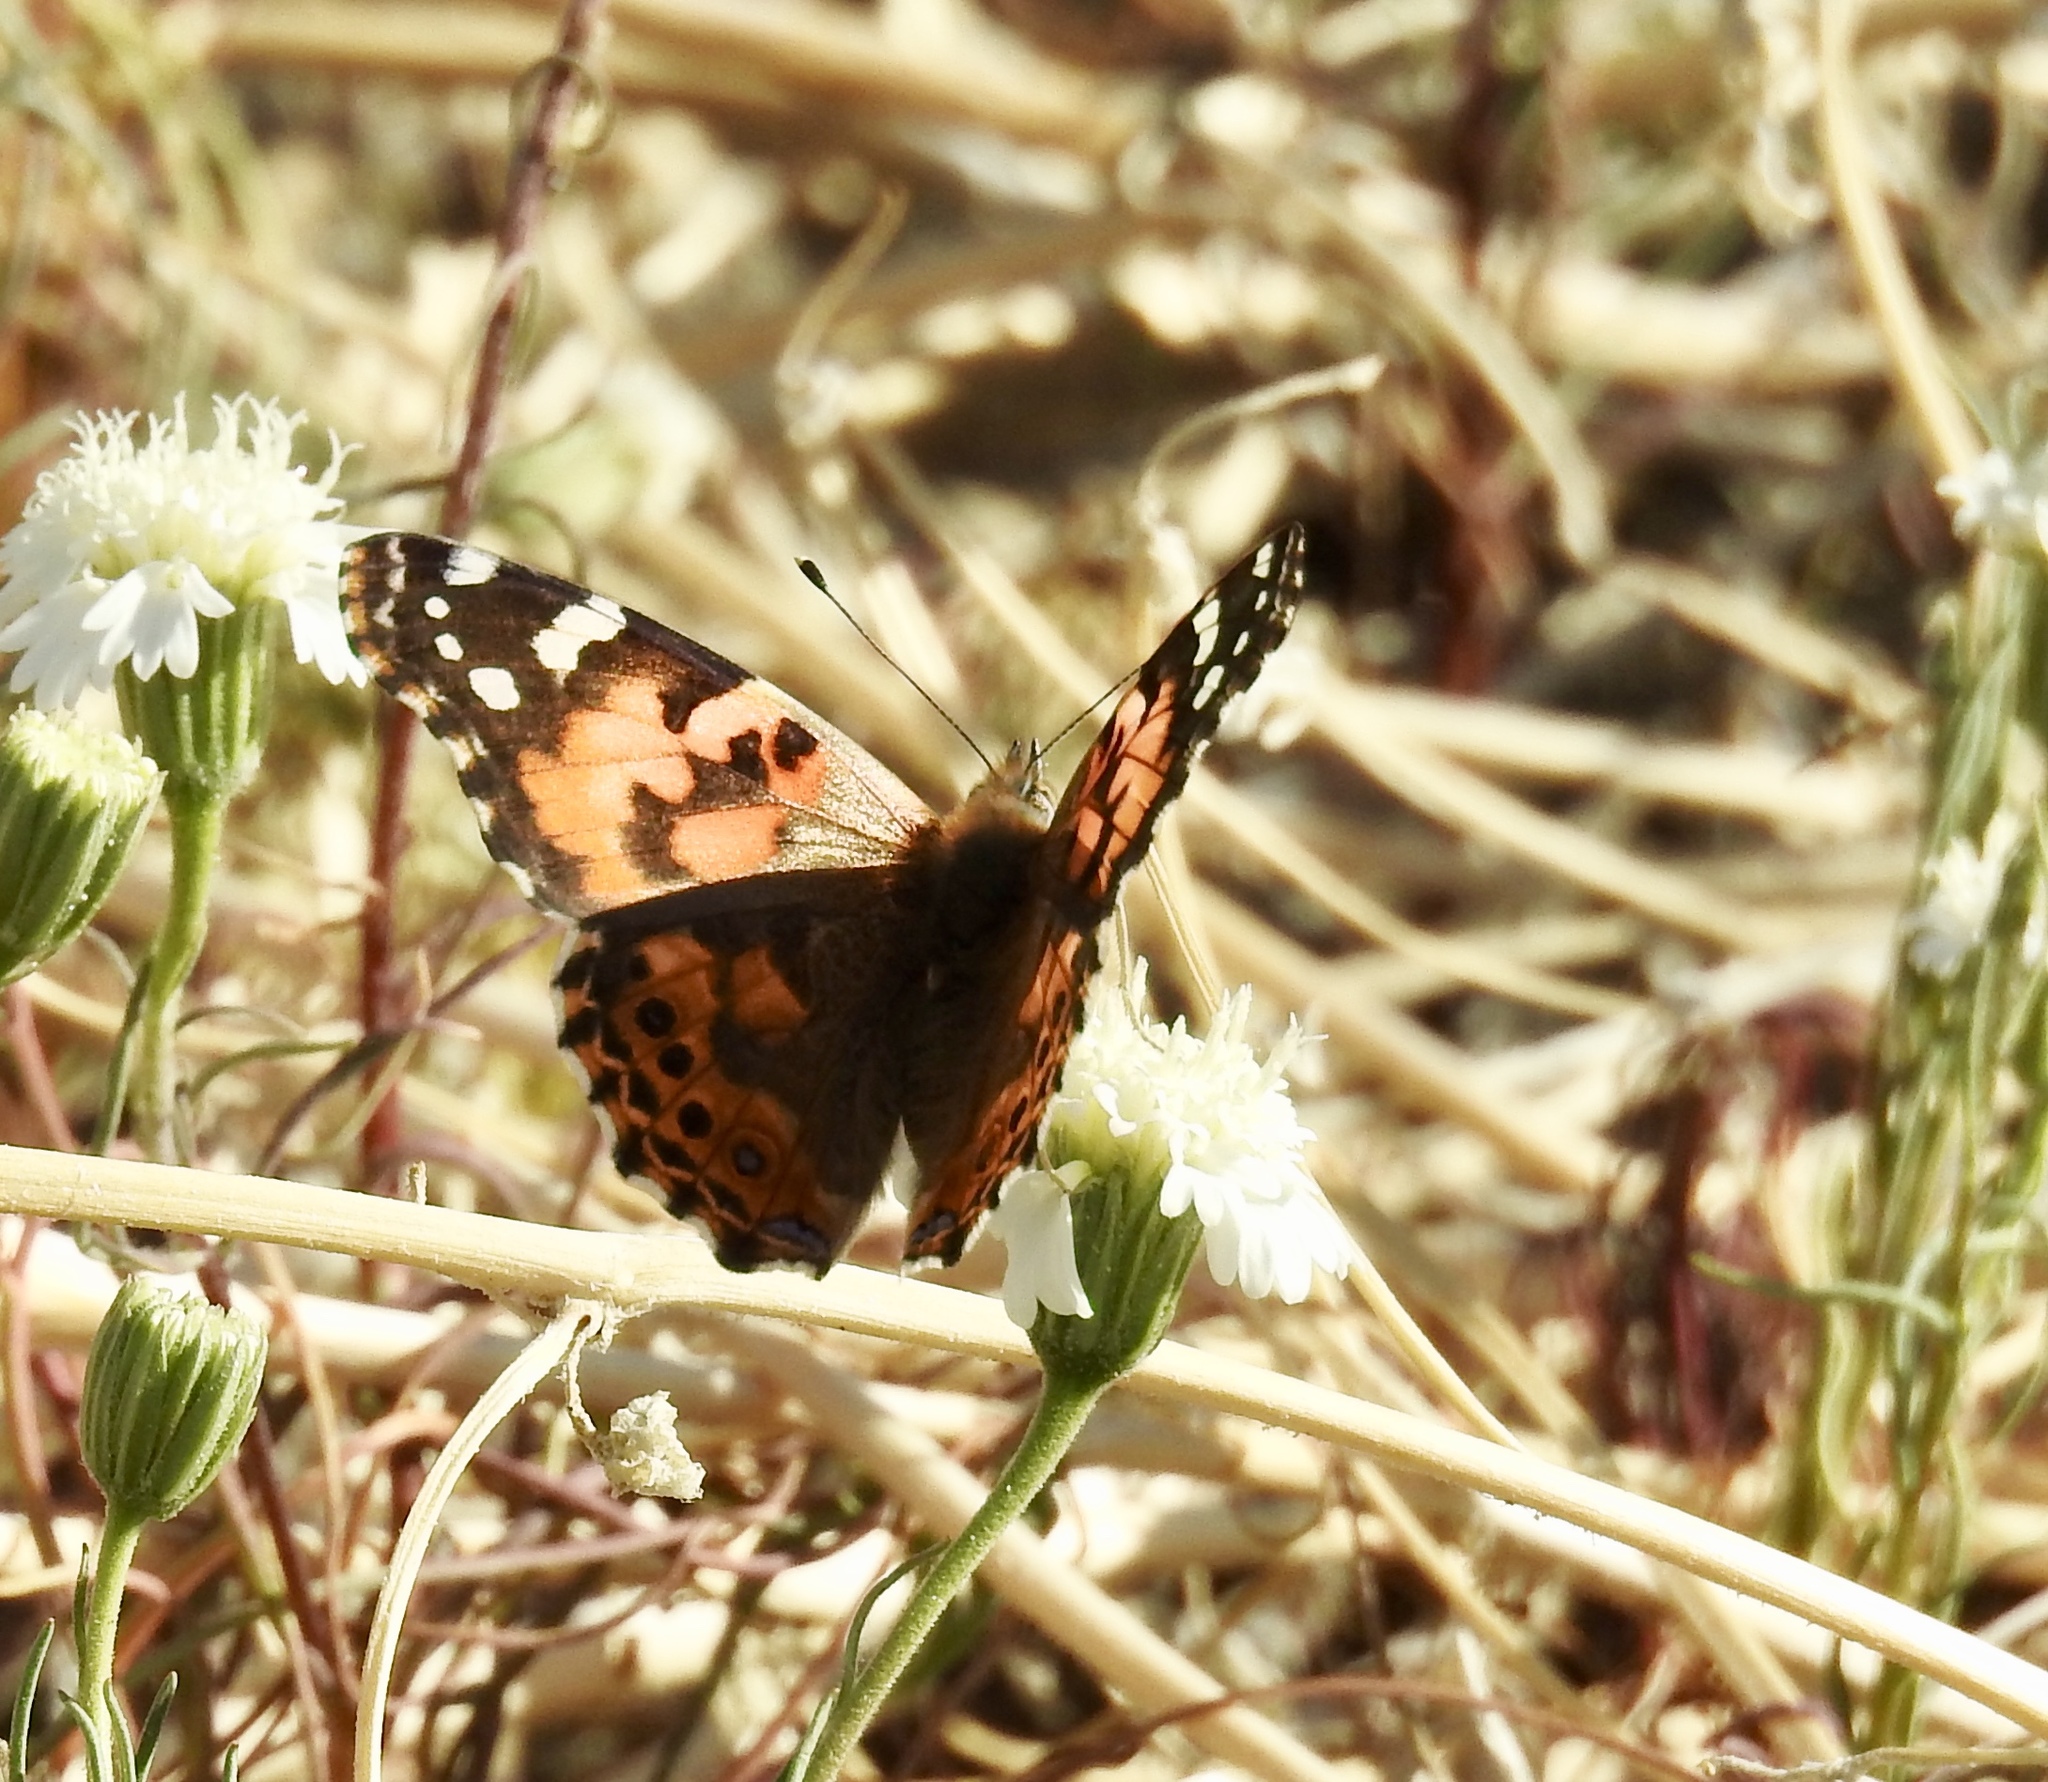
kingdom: Animalia
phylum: Arthropoda
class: Insecta
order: Lepidoptera
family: Nymphalidae
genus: Vanessa
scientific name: Vanessa cardui
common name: Painted lady
